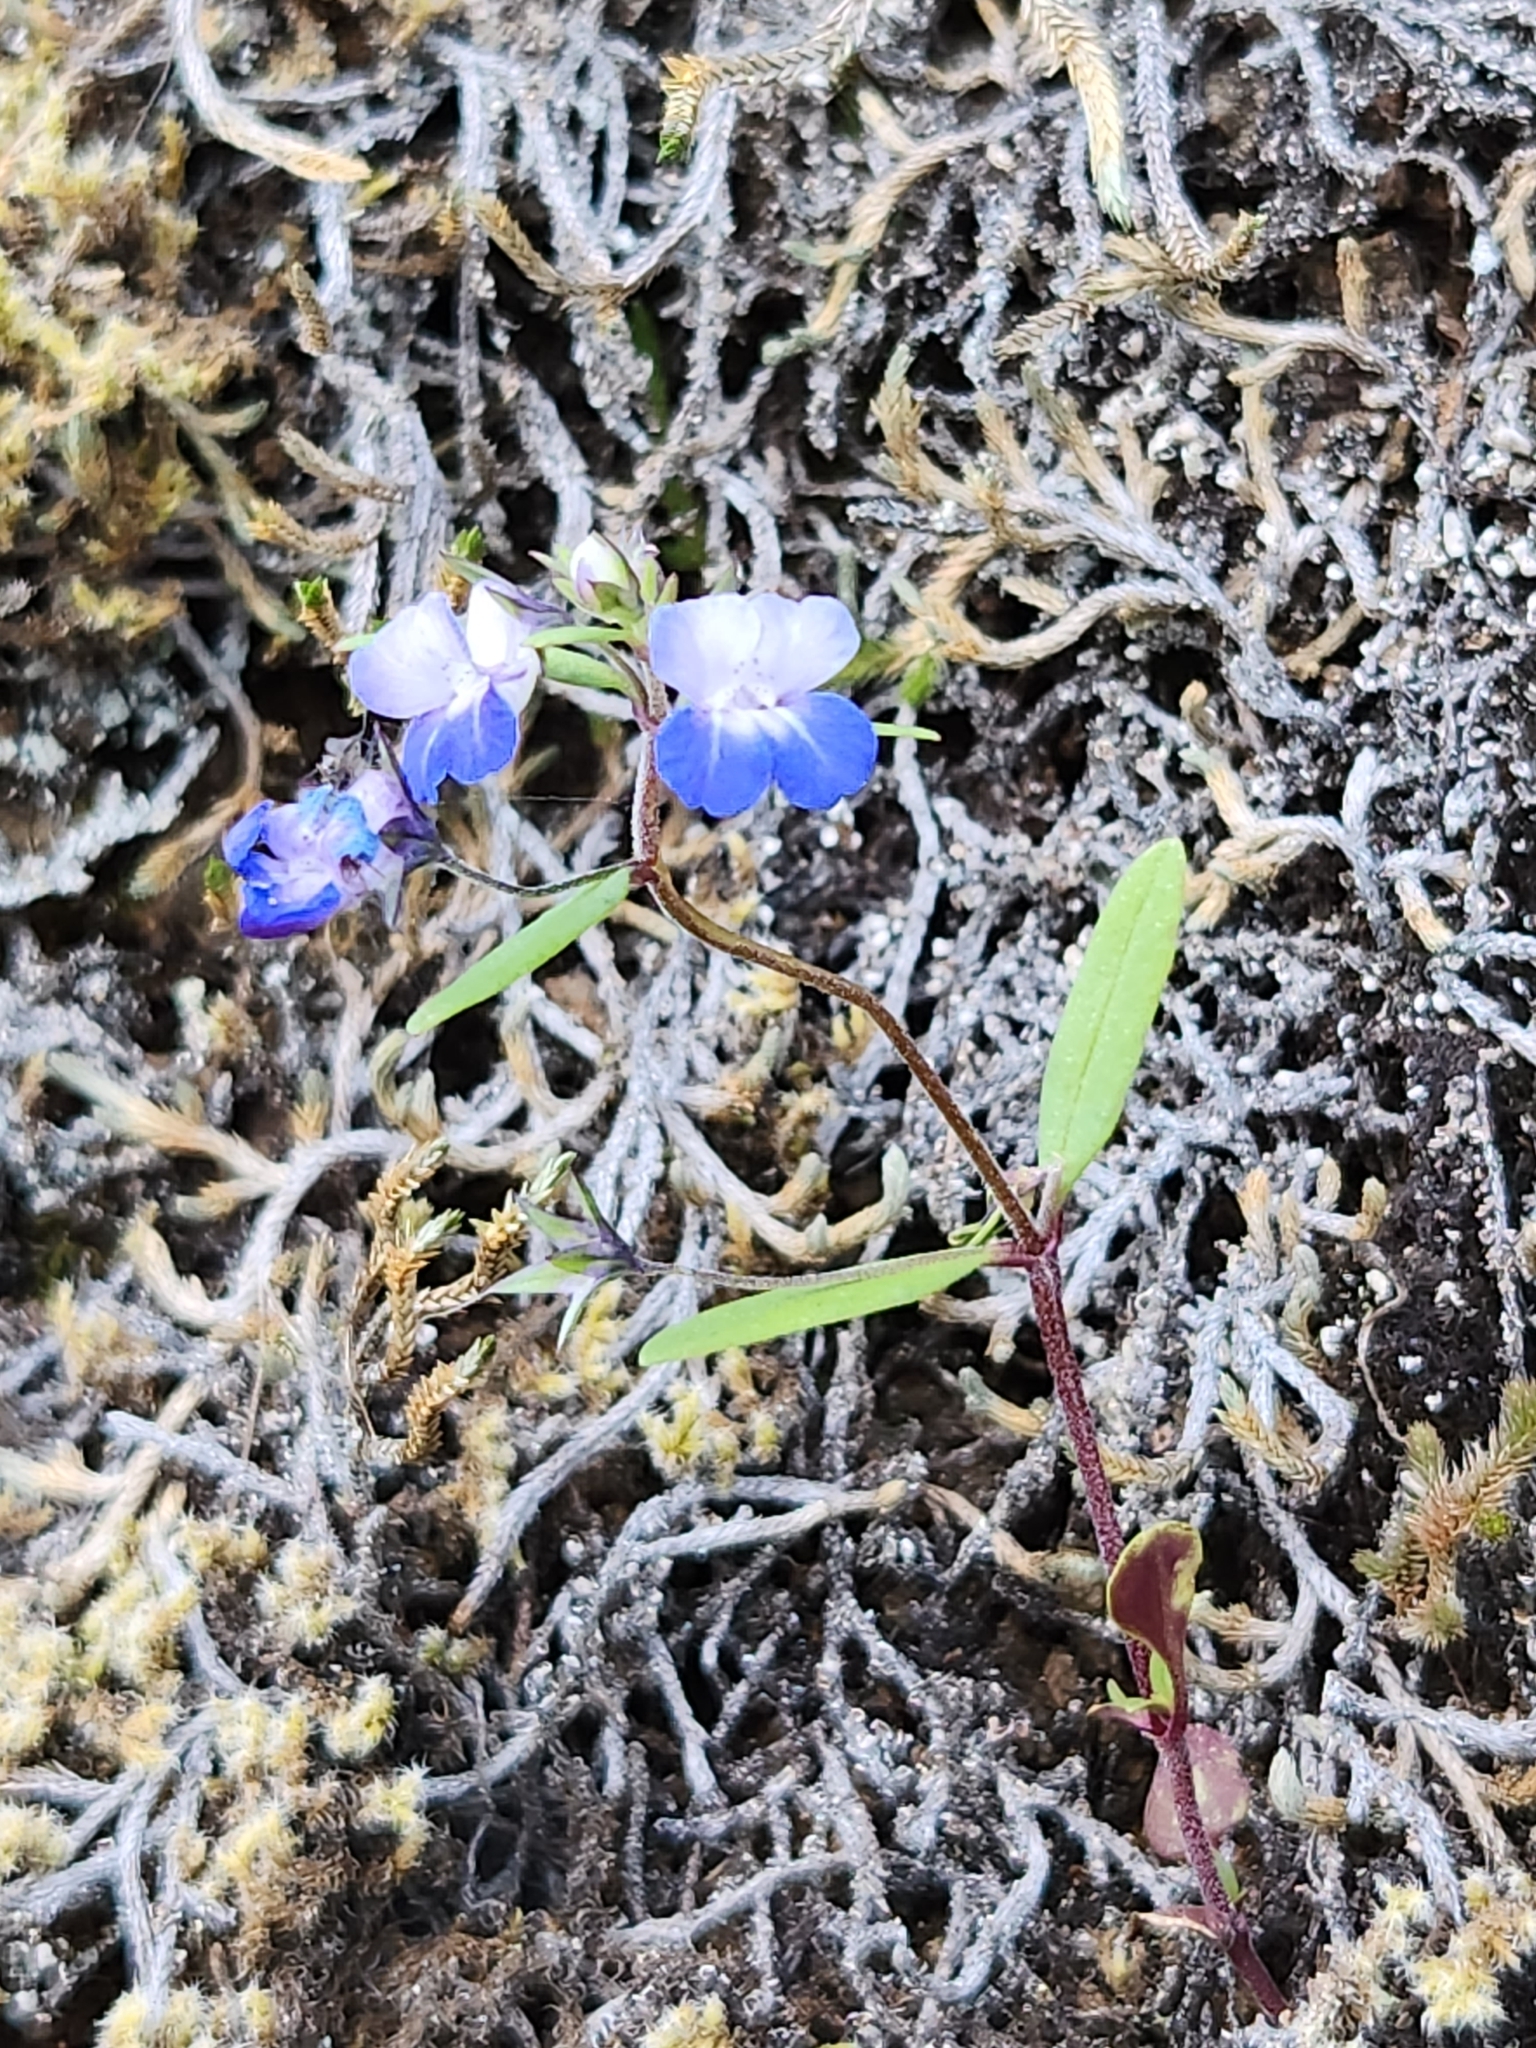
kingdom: Plantae
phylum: Tracheophyta
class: Magnoliopsida
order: Lamiales
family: Plantaginaceae
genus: Collinsia
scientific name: Collinsia grandiflora
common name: Large-flower blue-eyed-mary
